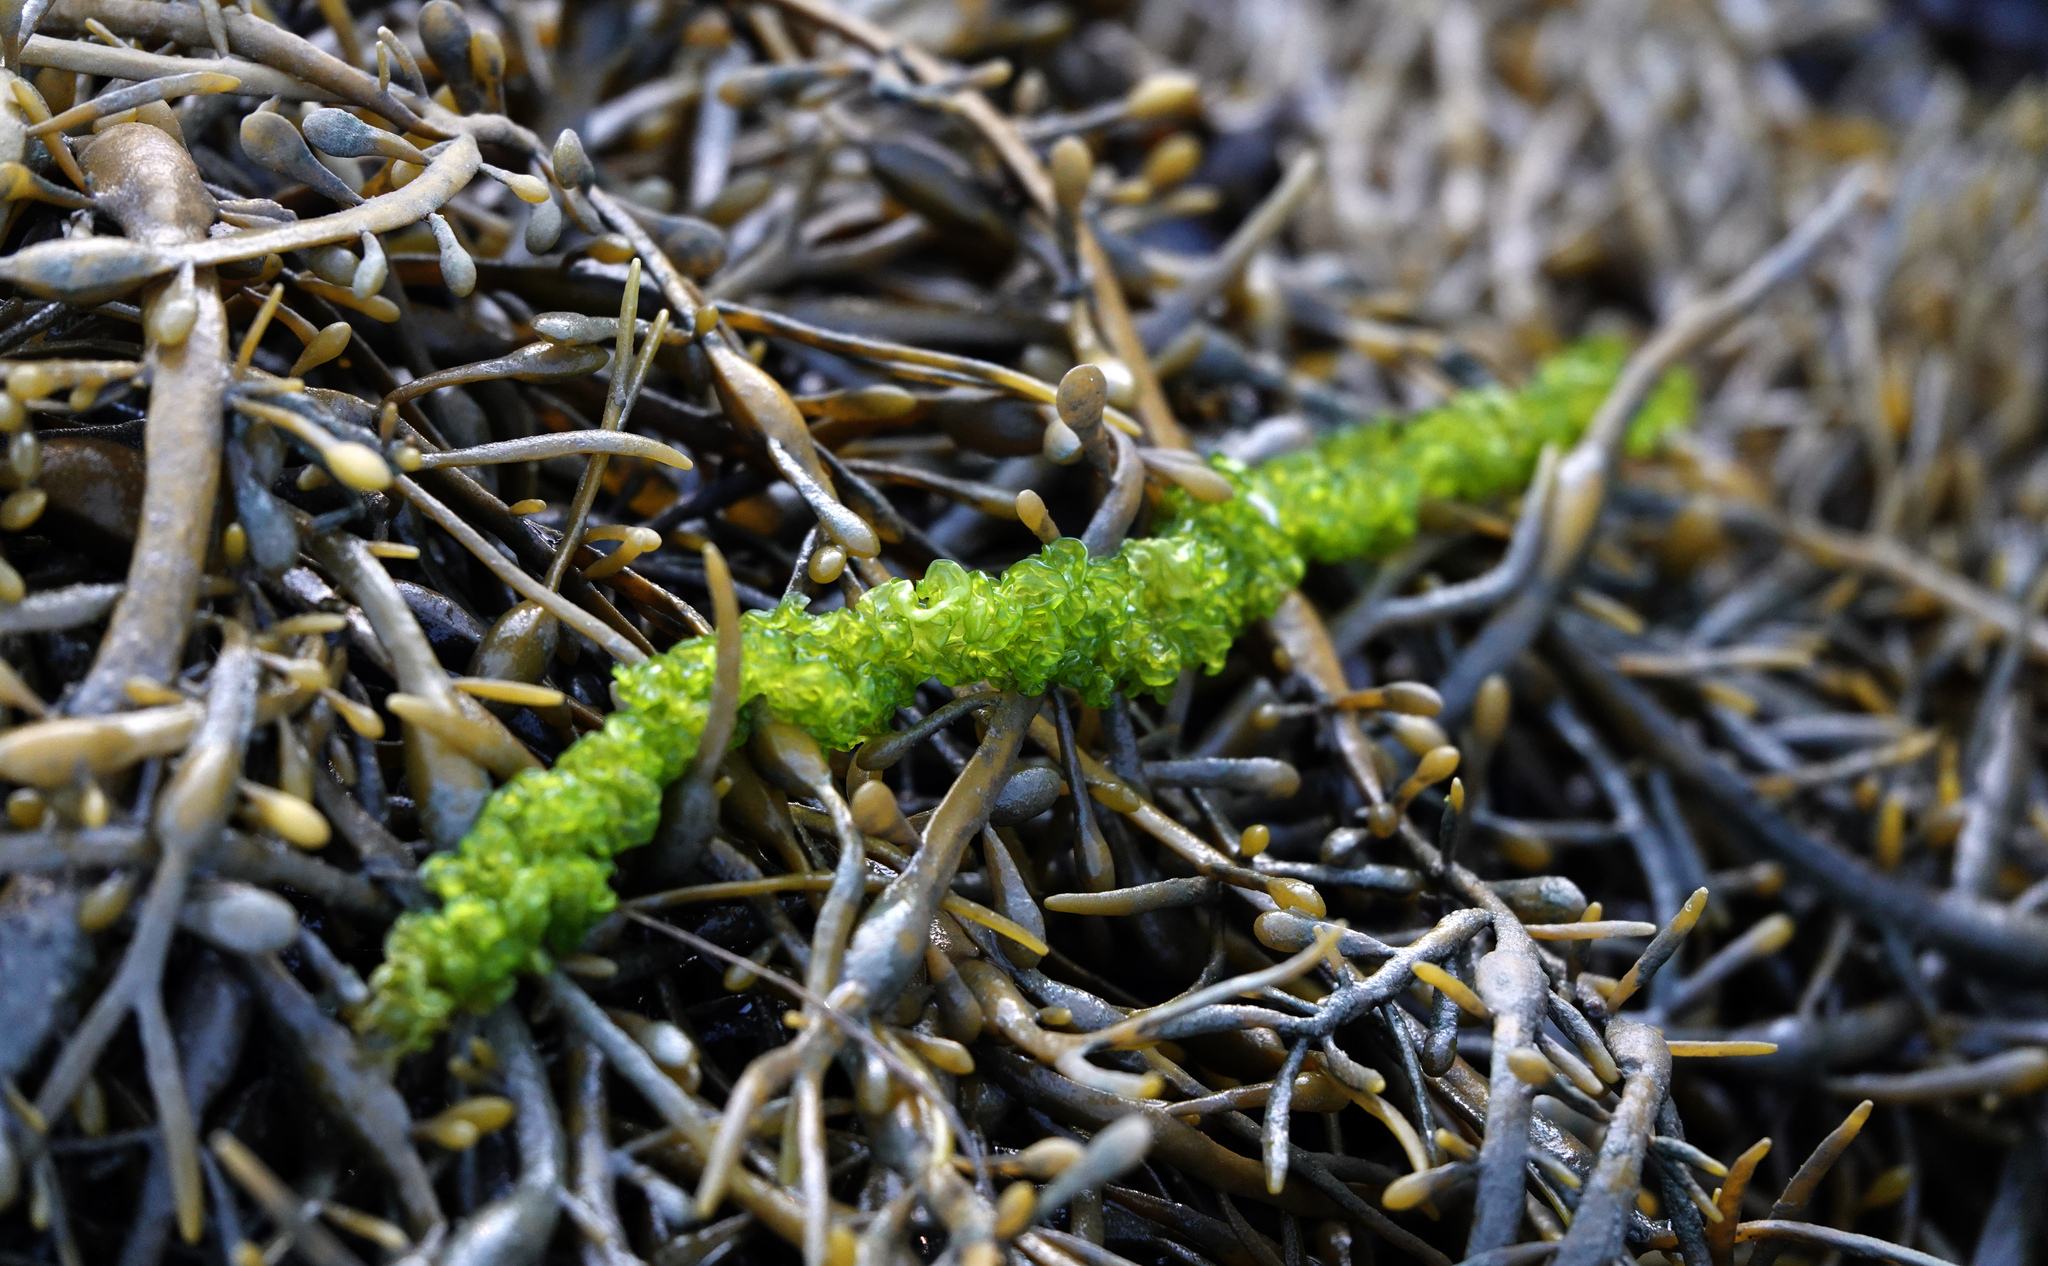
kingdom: Plantae
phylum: Chlorophyta
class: Ulvophyceae
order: Ulvales
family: Ulvaceae
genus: Ulva
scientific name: Ulva intestinalis
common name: Gut weed
